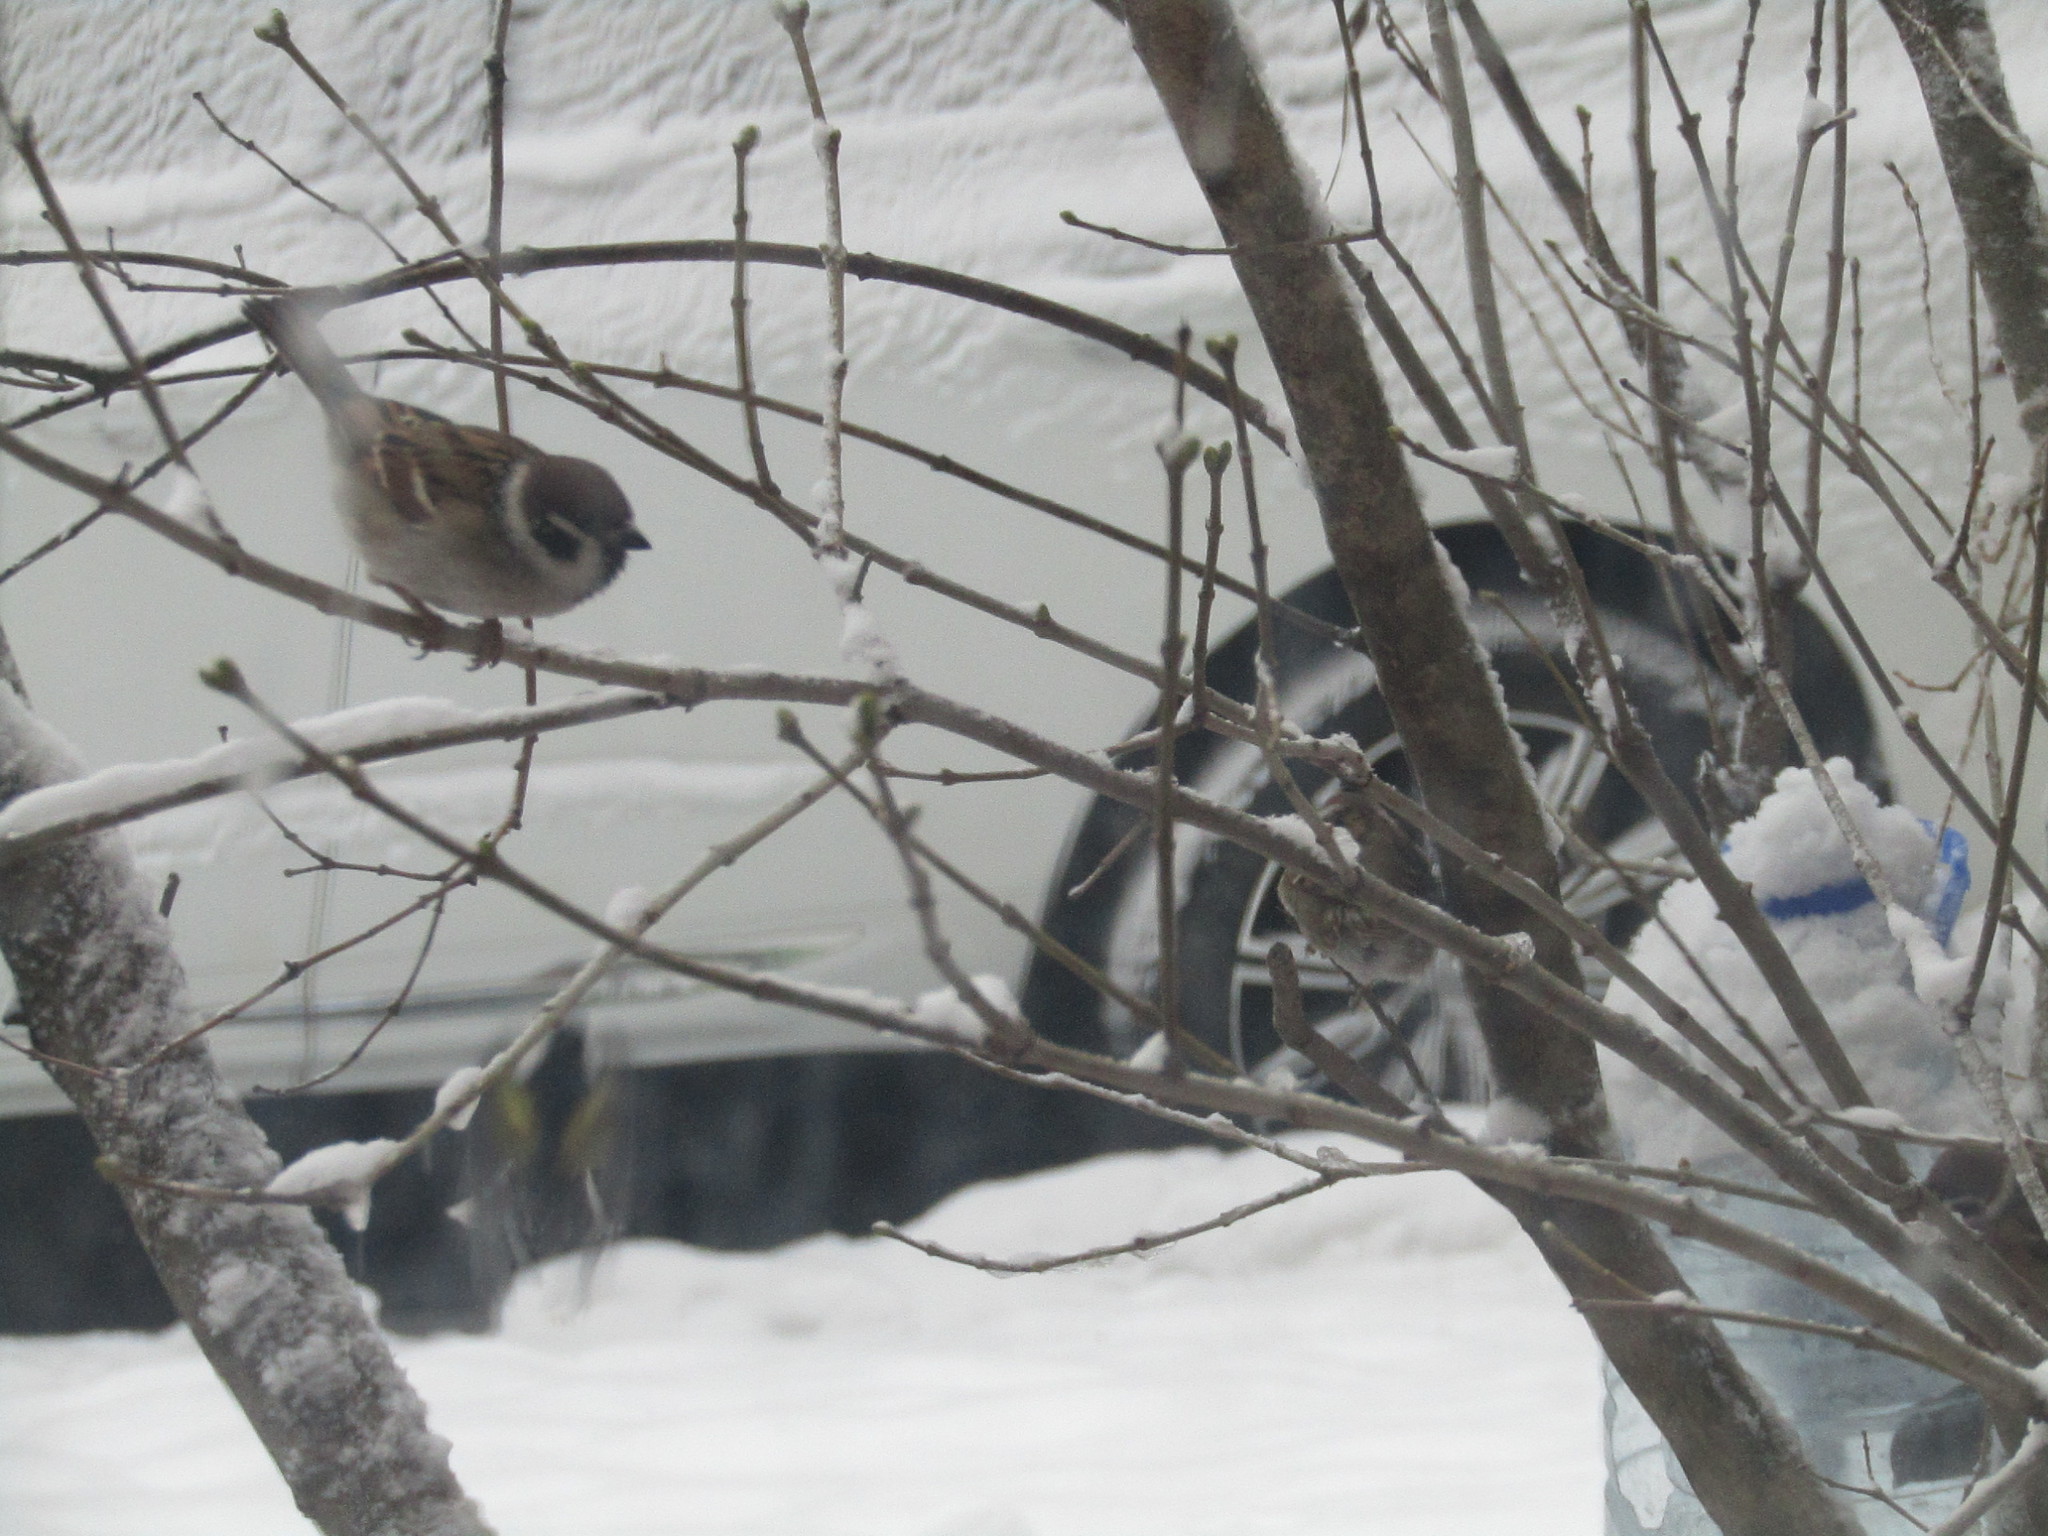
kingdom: Animalia
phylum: Chordata
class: Aves
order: Passeriformes
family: Passeridae
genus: Passer
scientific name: Passer montanus
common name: Eurasian tree sparrow
